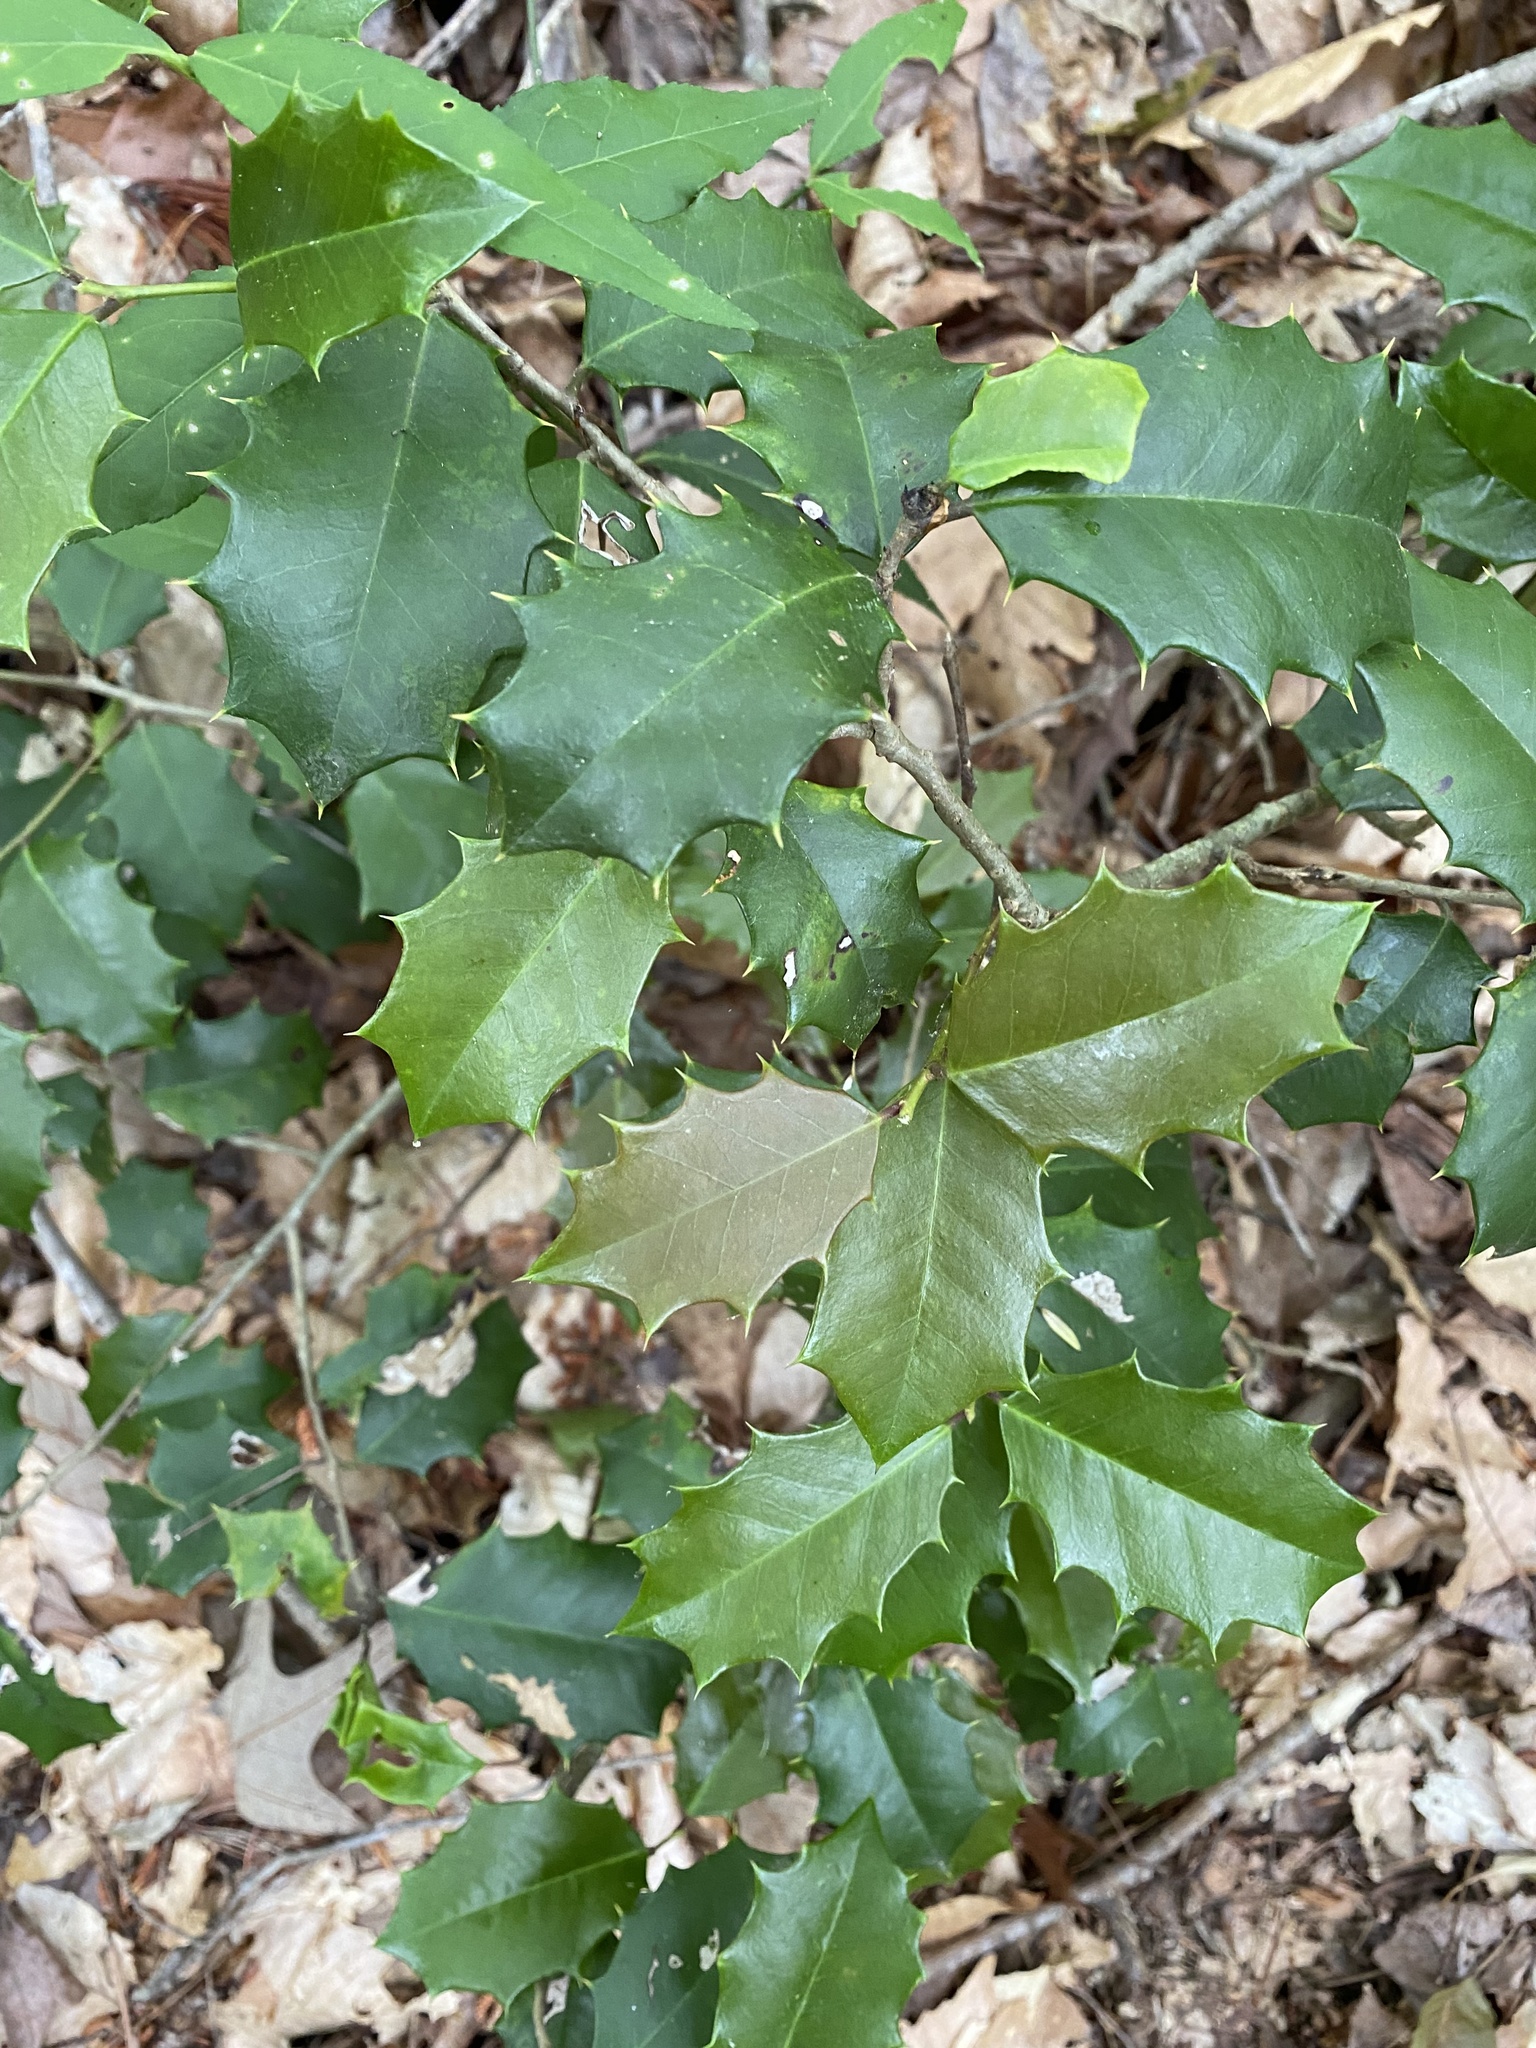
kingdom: Plantae
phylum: Tracheophyta
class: Magnoliopsida
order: Aquifoliales
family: Aquifoliaceae
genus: Ilex
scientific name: Ilex opaca
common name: American holly
